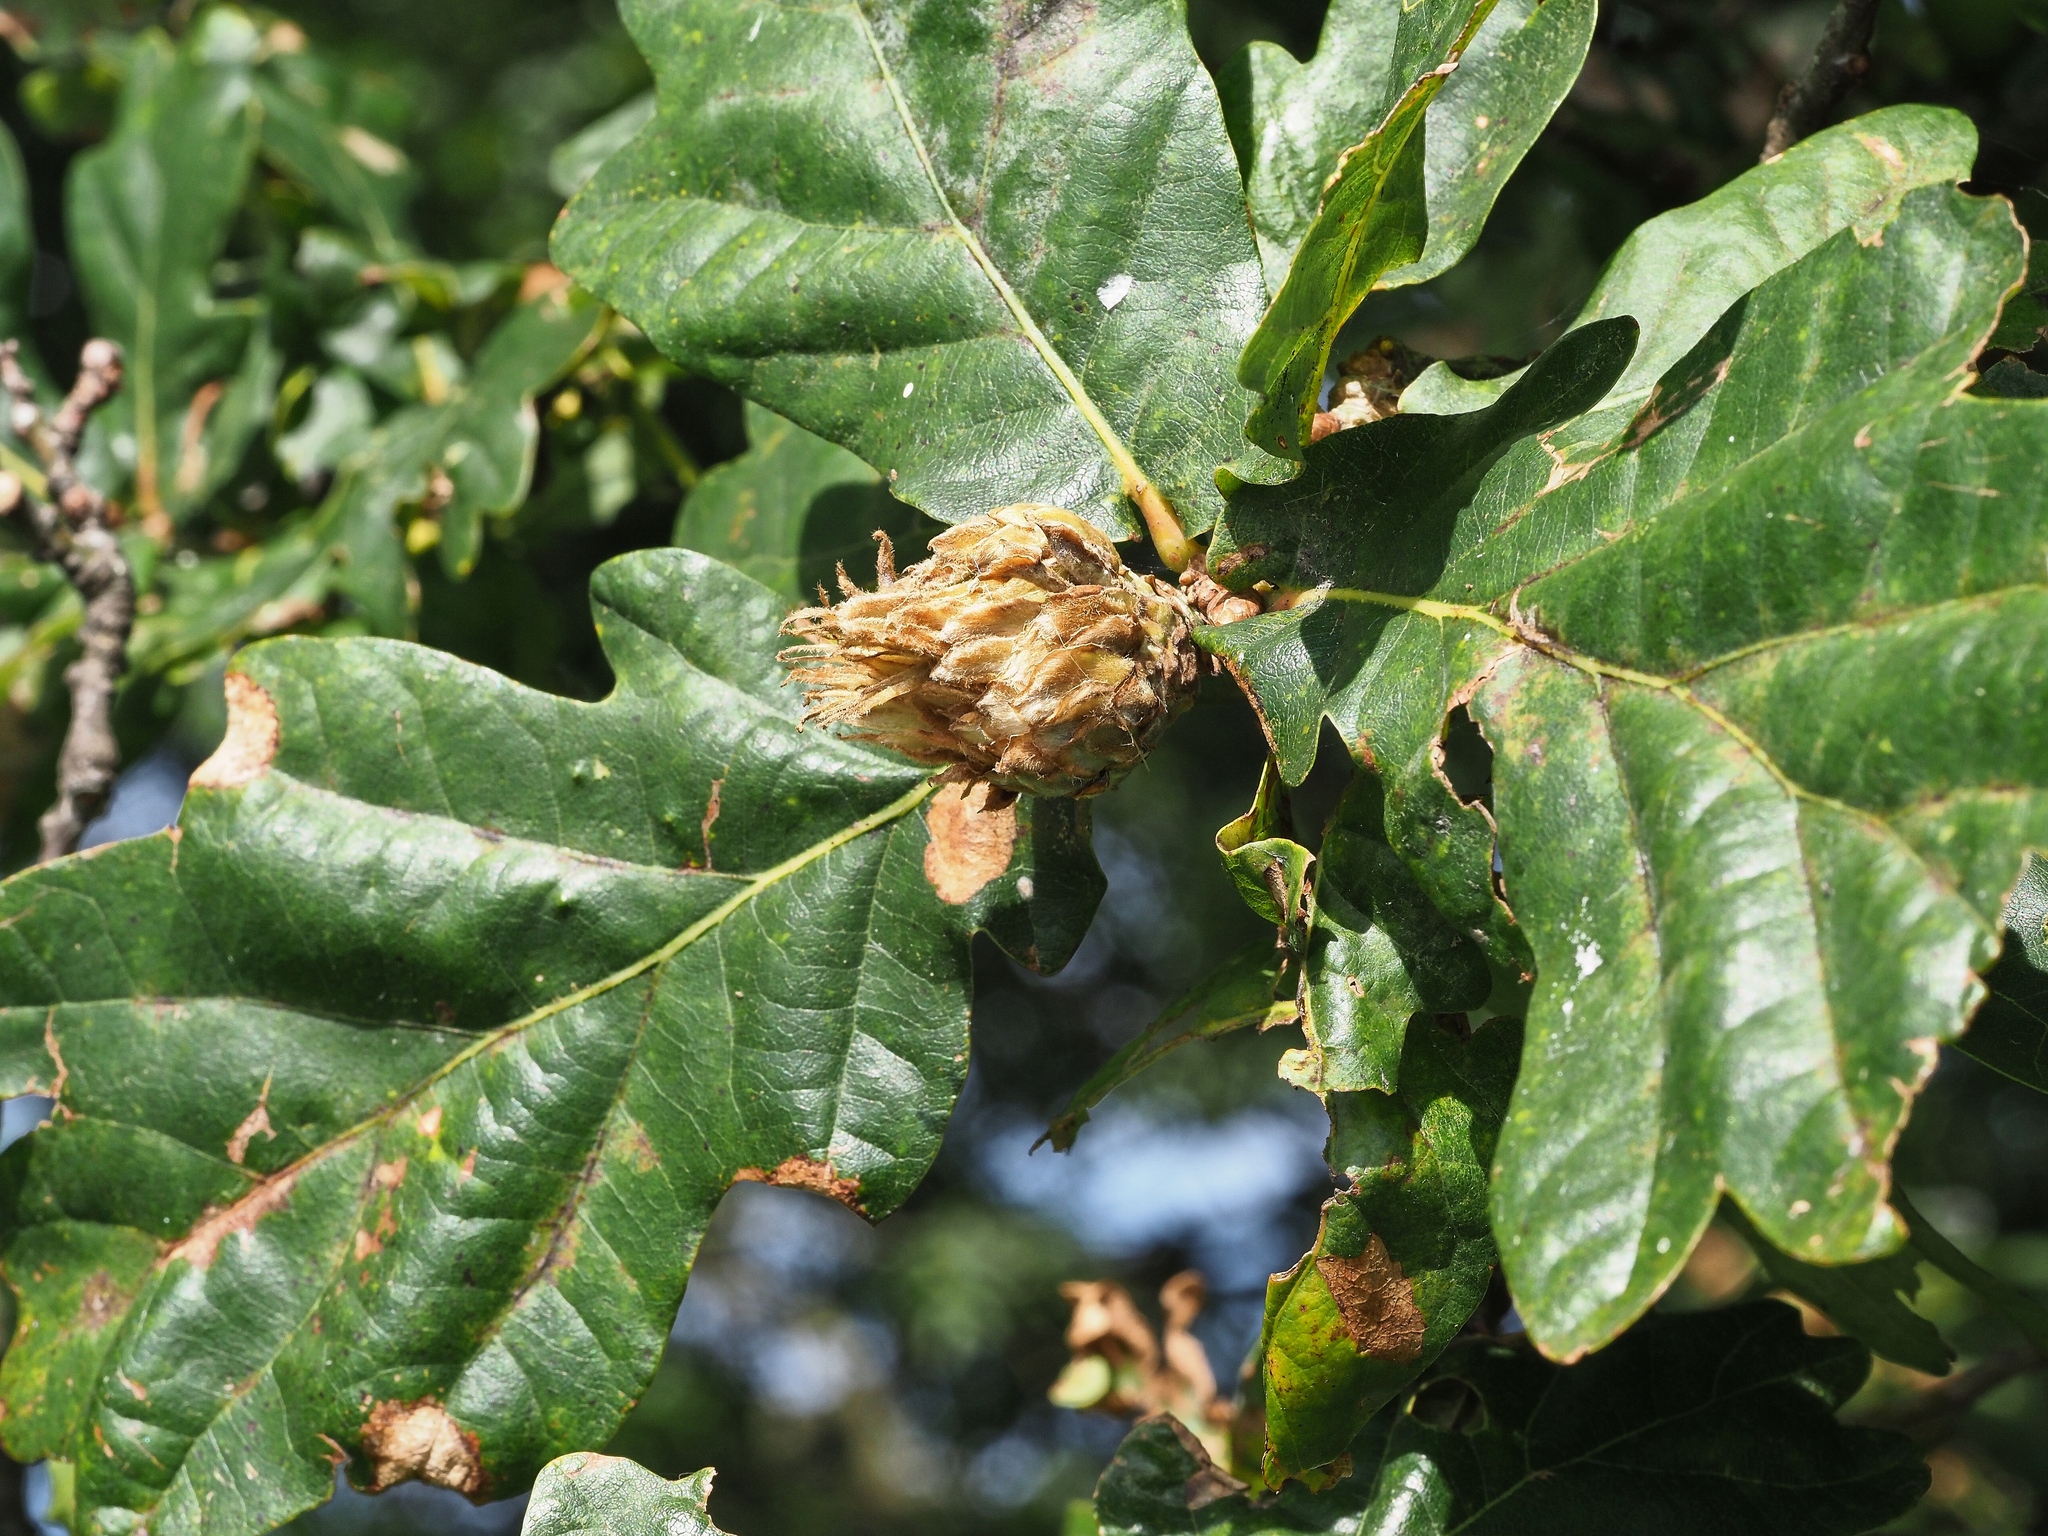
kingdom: Animalia
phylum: Arthropoda
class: Insecta
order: Hymenoptera
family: Cynipidae
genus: Andricus
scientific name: Andricus foecundatrix
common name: Artichoke gall
